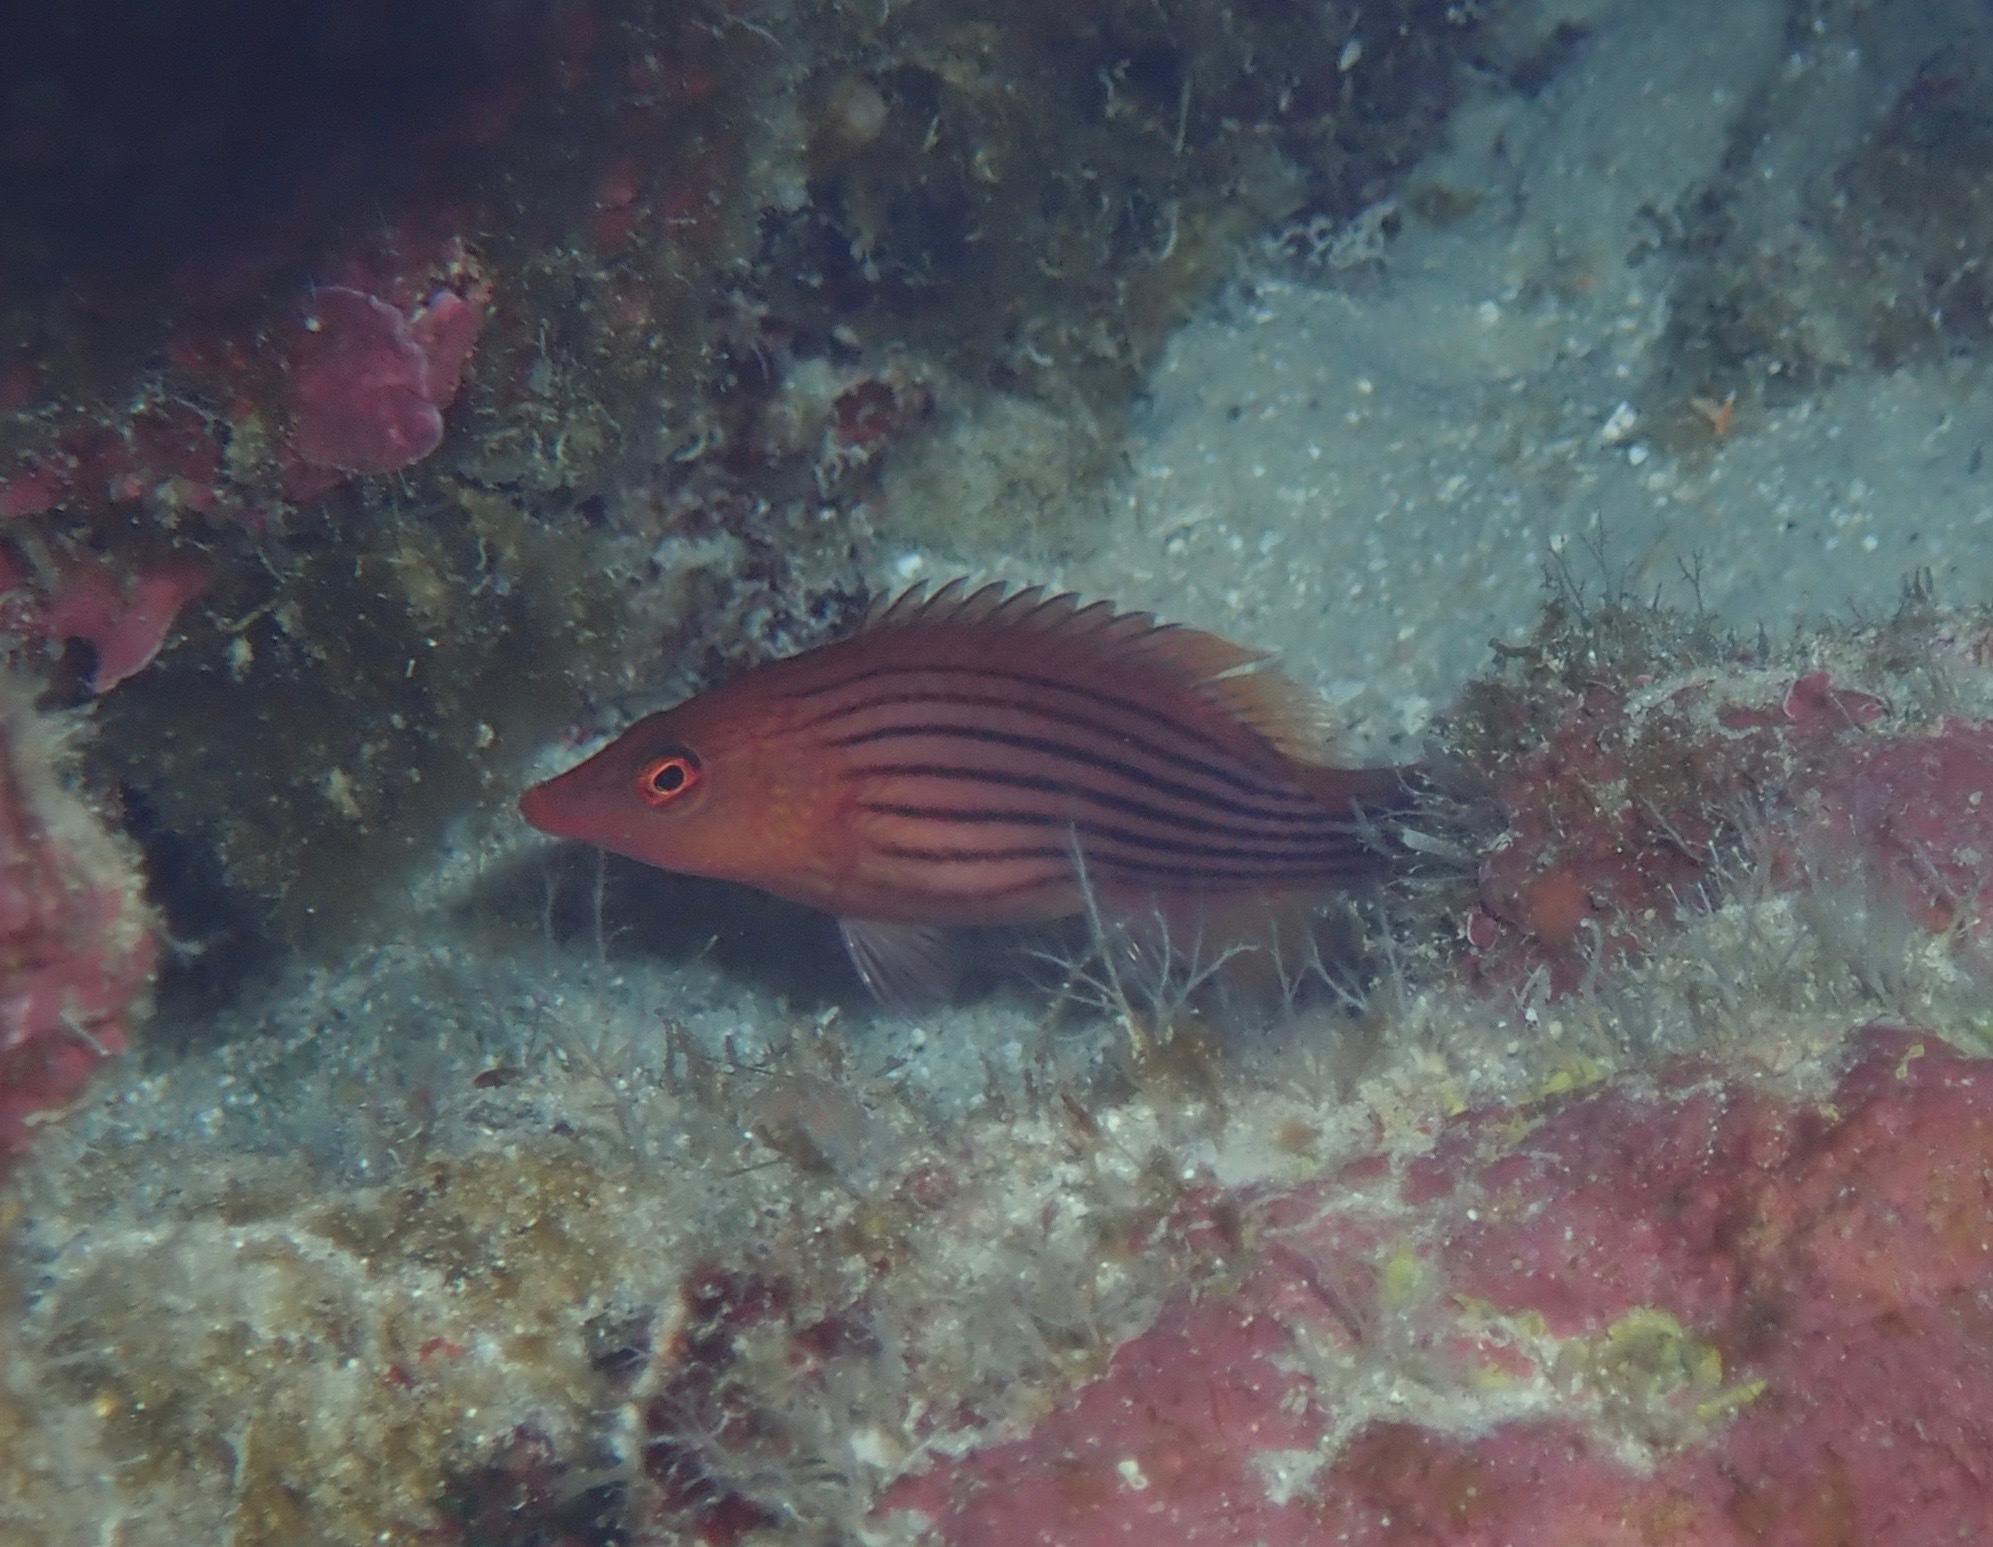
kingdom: Animalia
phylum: Chordata
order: Perciformes
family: Labridae
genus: Pseudocheilinus
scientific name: Pseudocheilinus octotaenia
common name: Eightline wrasse
